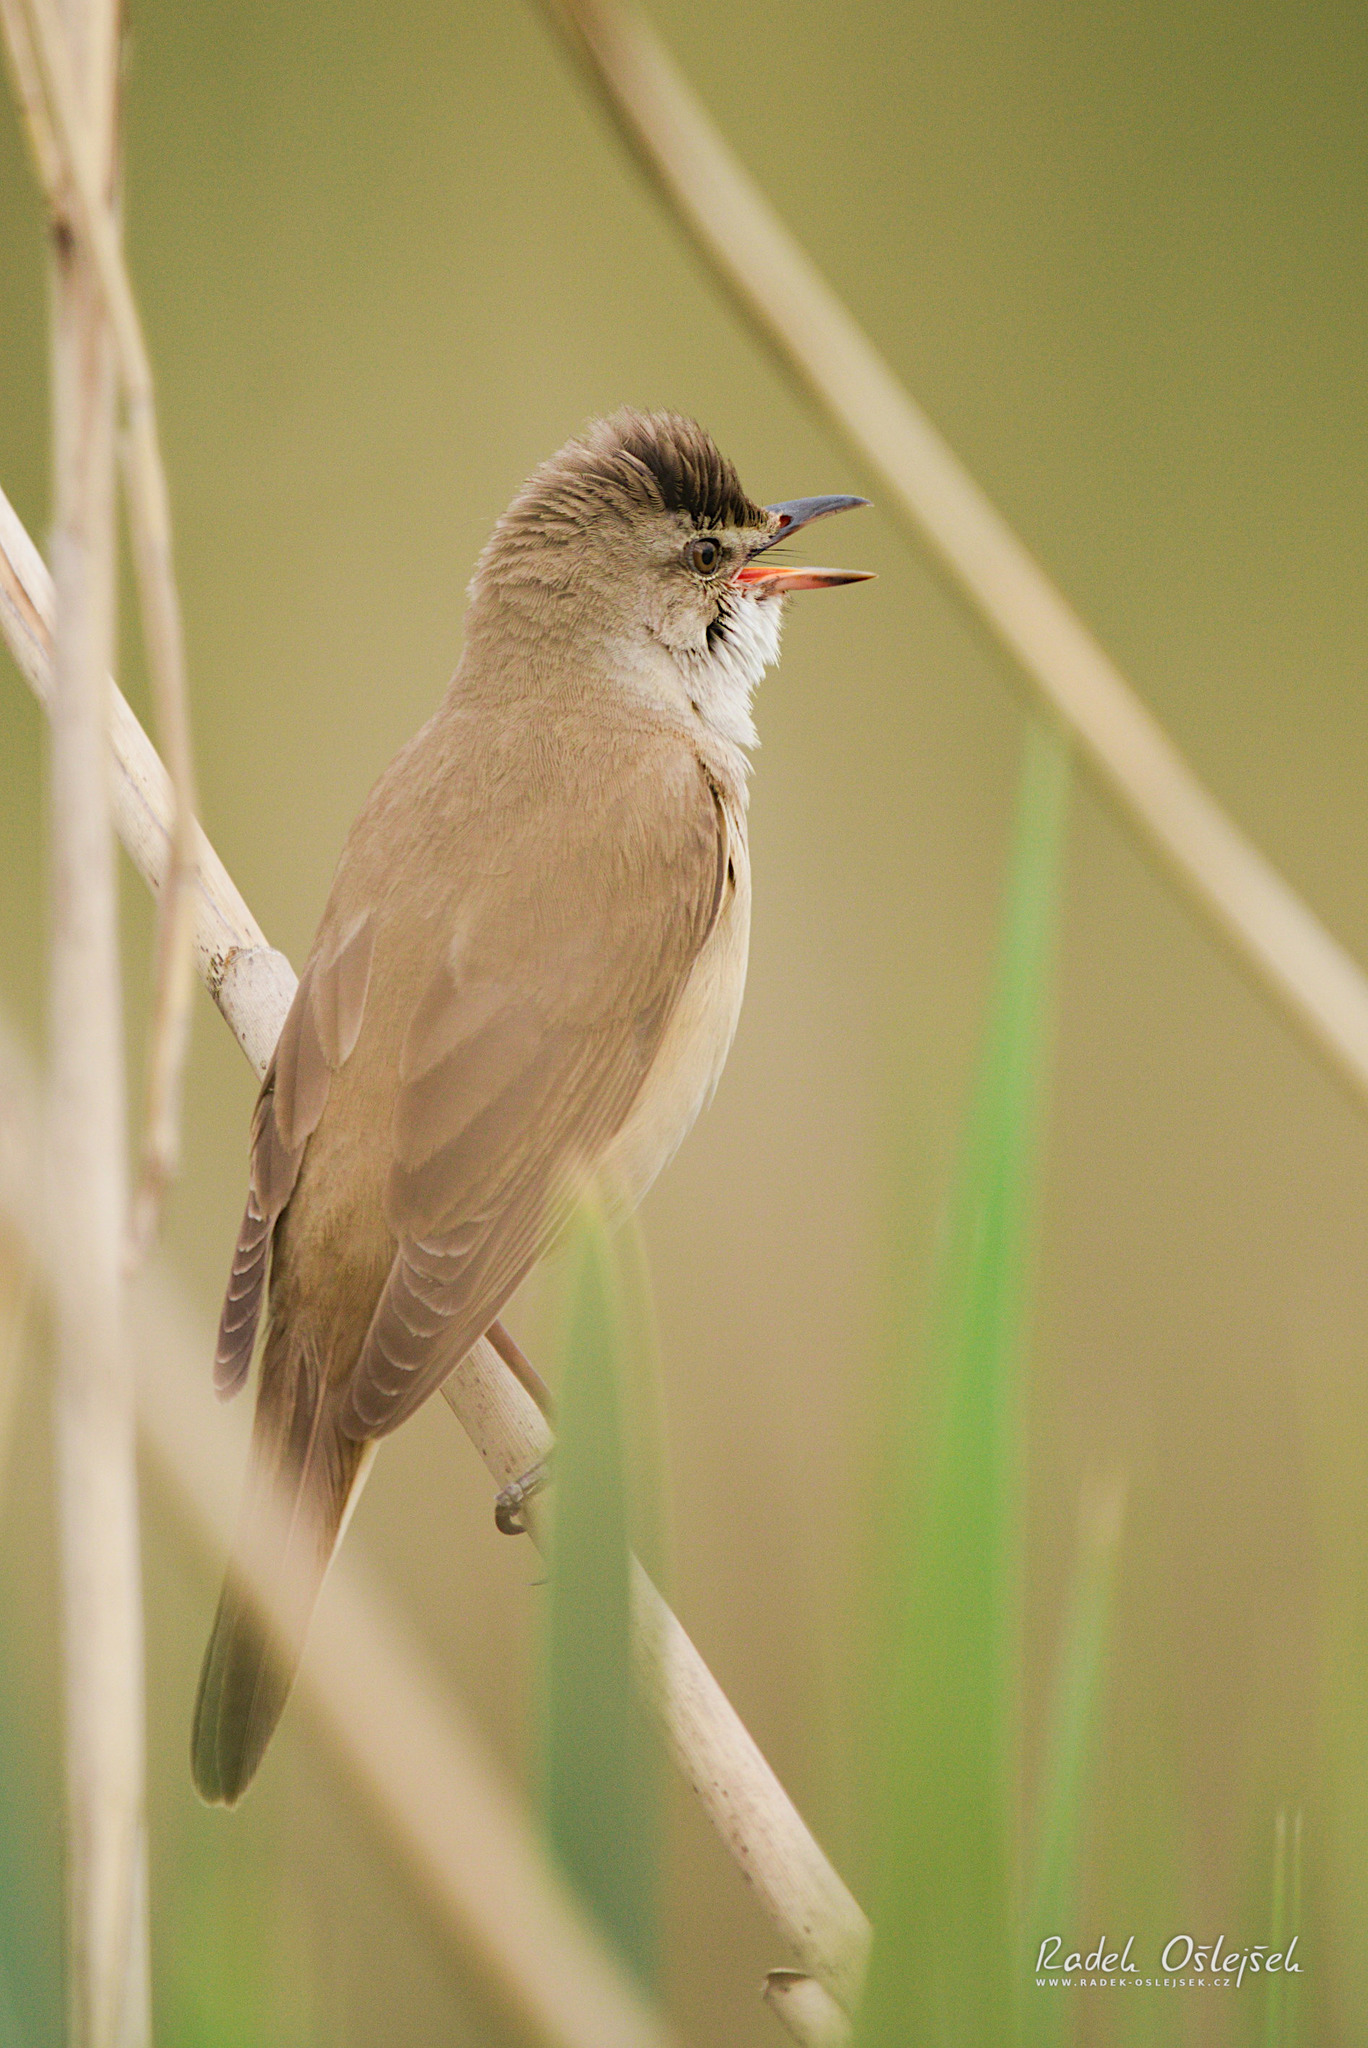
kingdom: Animalia
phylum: Chordata
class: Aves
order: Passeriformes
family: Acrocephalidae
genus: Acrocephalus
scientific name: Acrocephalus arundinaceus
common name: Great reed warbler
